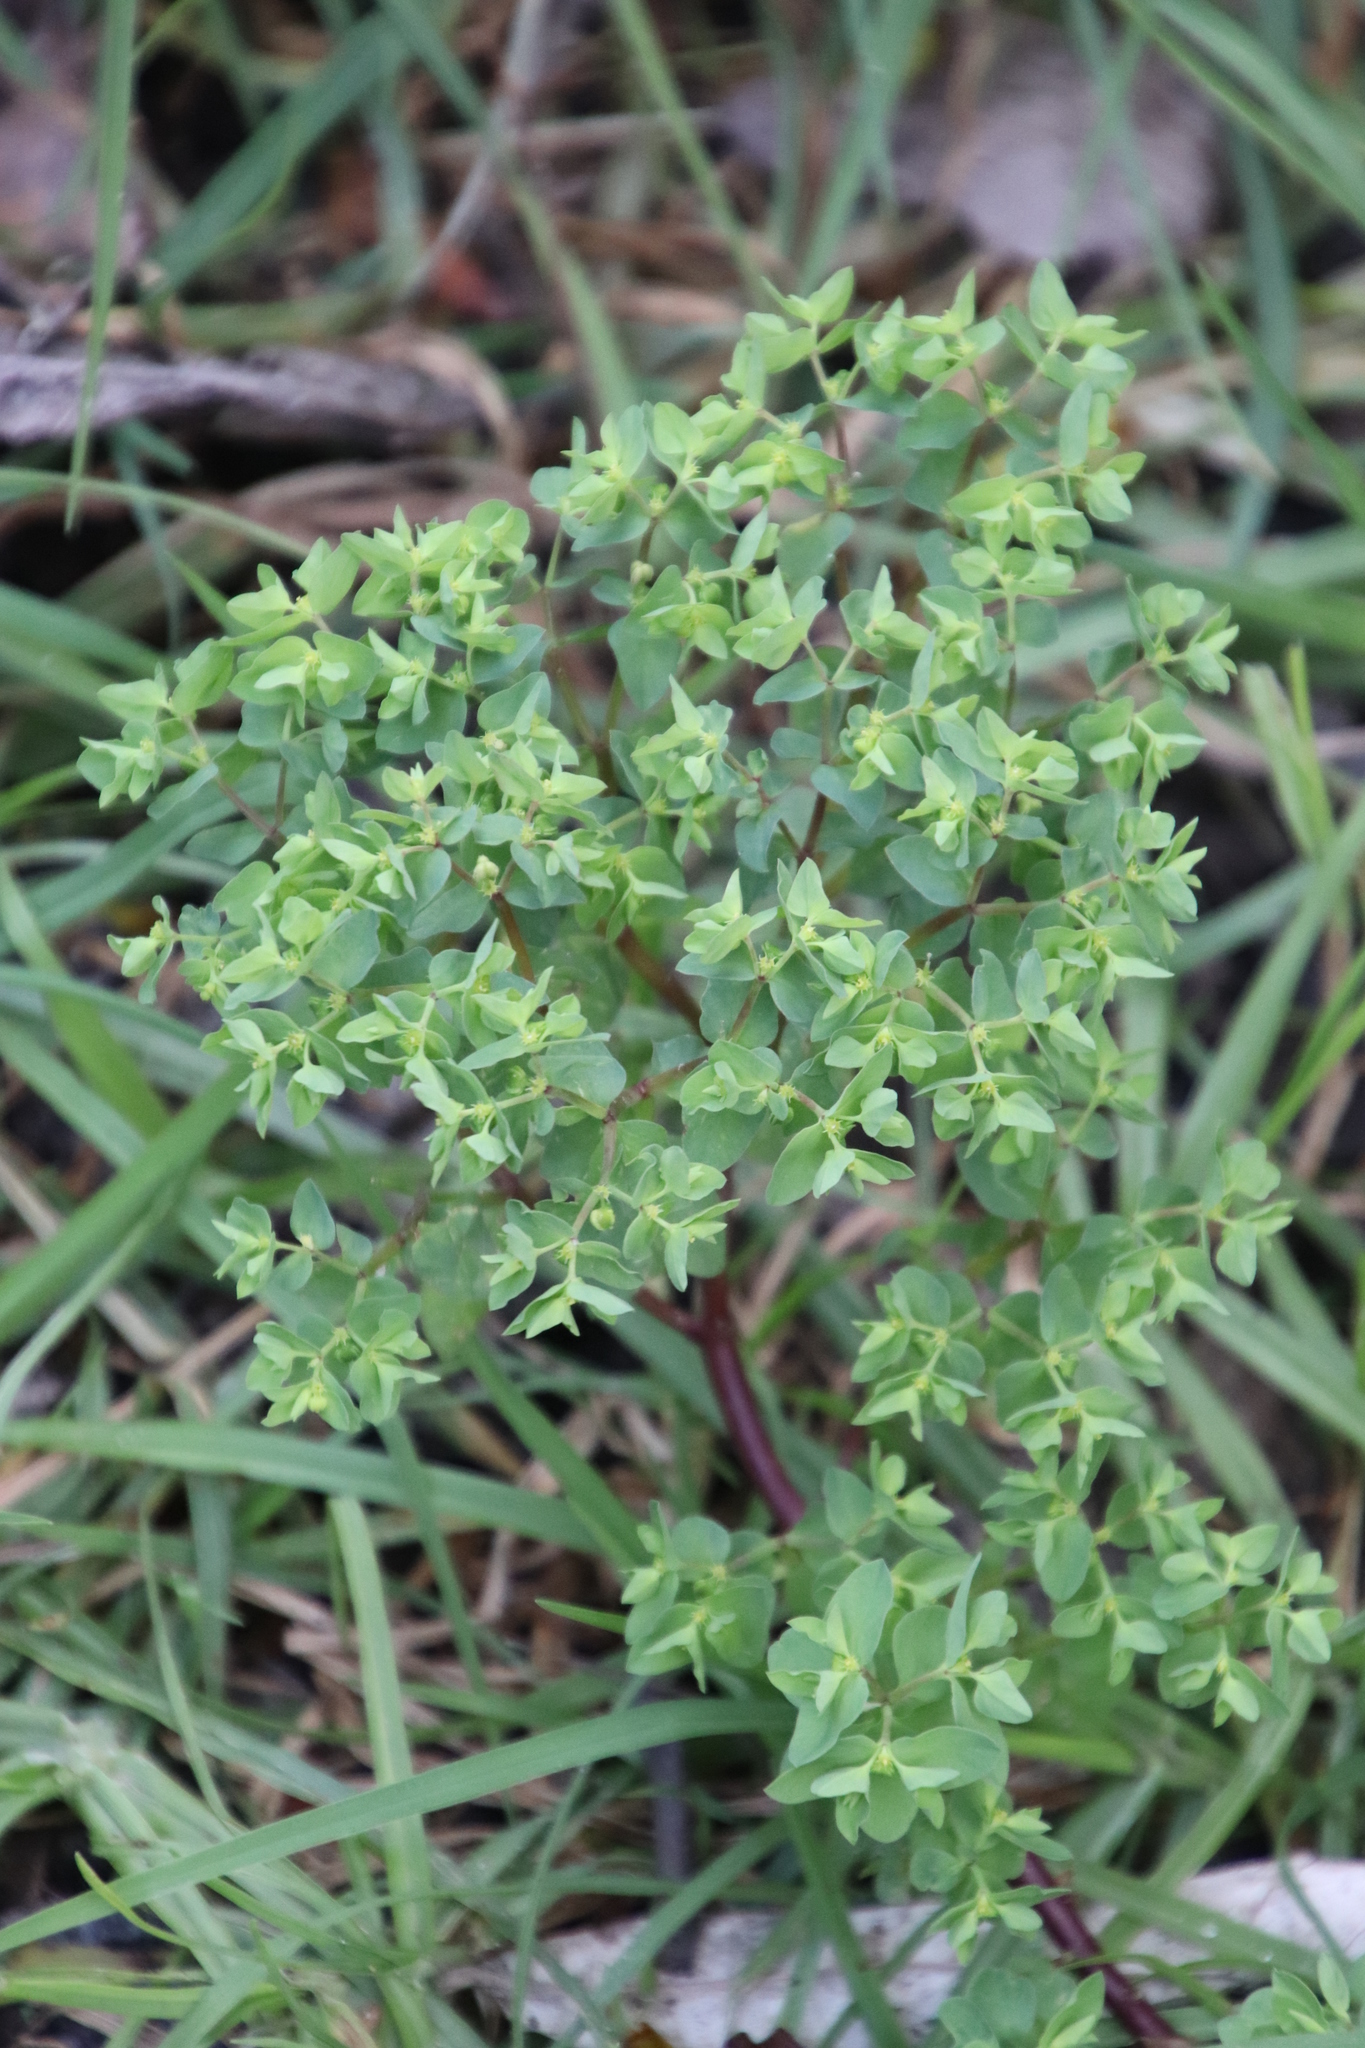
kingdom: Plantae
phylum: Tracheophyta
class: Magnoliopsida
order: Malpighiales
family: Euphorbiaceae
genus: Euphorbia
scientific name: Euphorbia peplus
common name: Petty spurge
